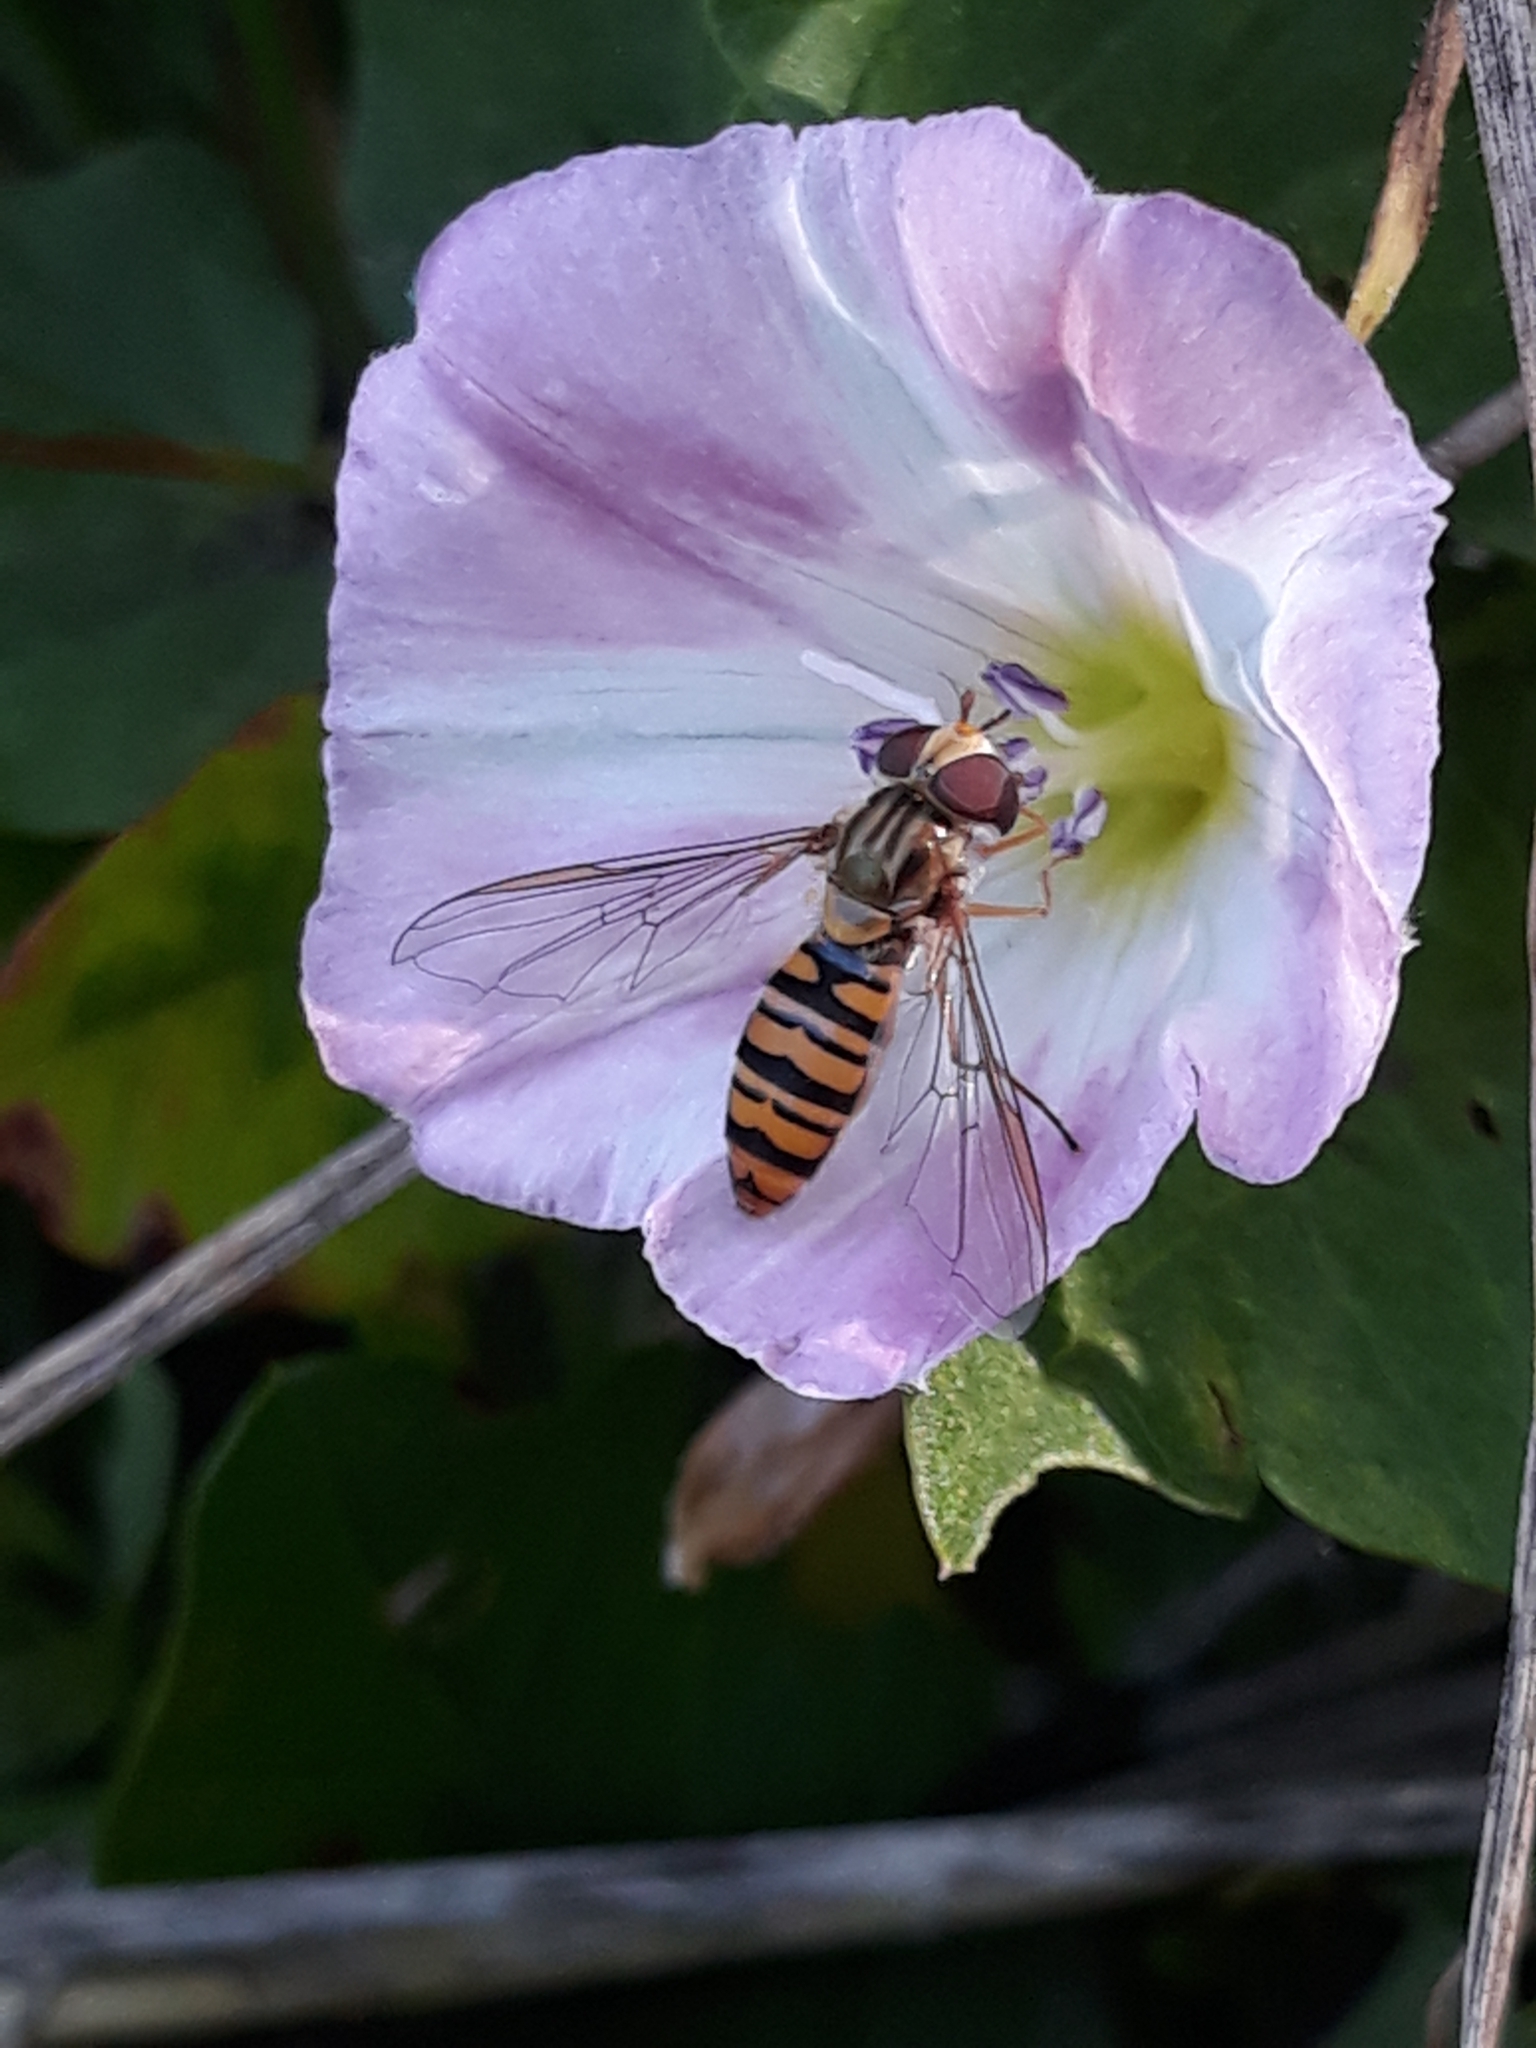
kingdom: Animalia
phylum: Arthropoda
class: Insecta
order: Diptera
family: Syrphidae
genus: Episyrphus
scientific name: Episyrphus balteatus
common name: Marmalade hoverfly
